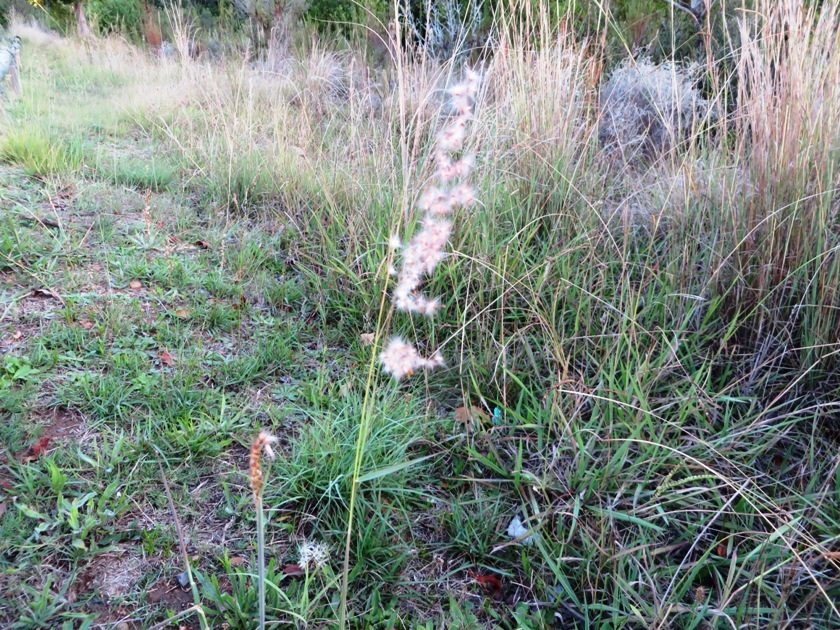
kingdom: Plantae
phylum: Tracheophyta
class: Liliopsida
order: Poales
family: Poaceae
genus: Melinis
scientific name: Melinis repens
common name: Rose natal grass
